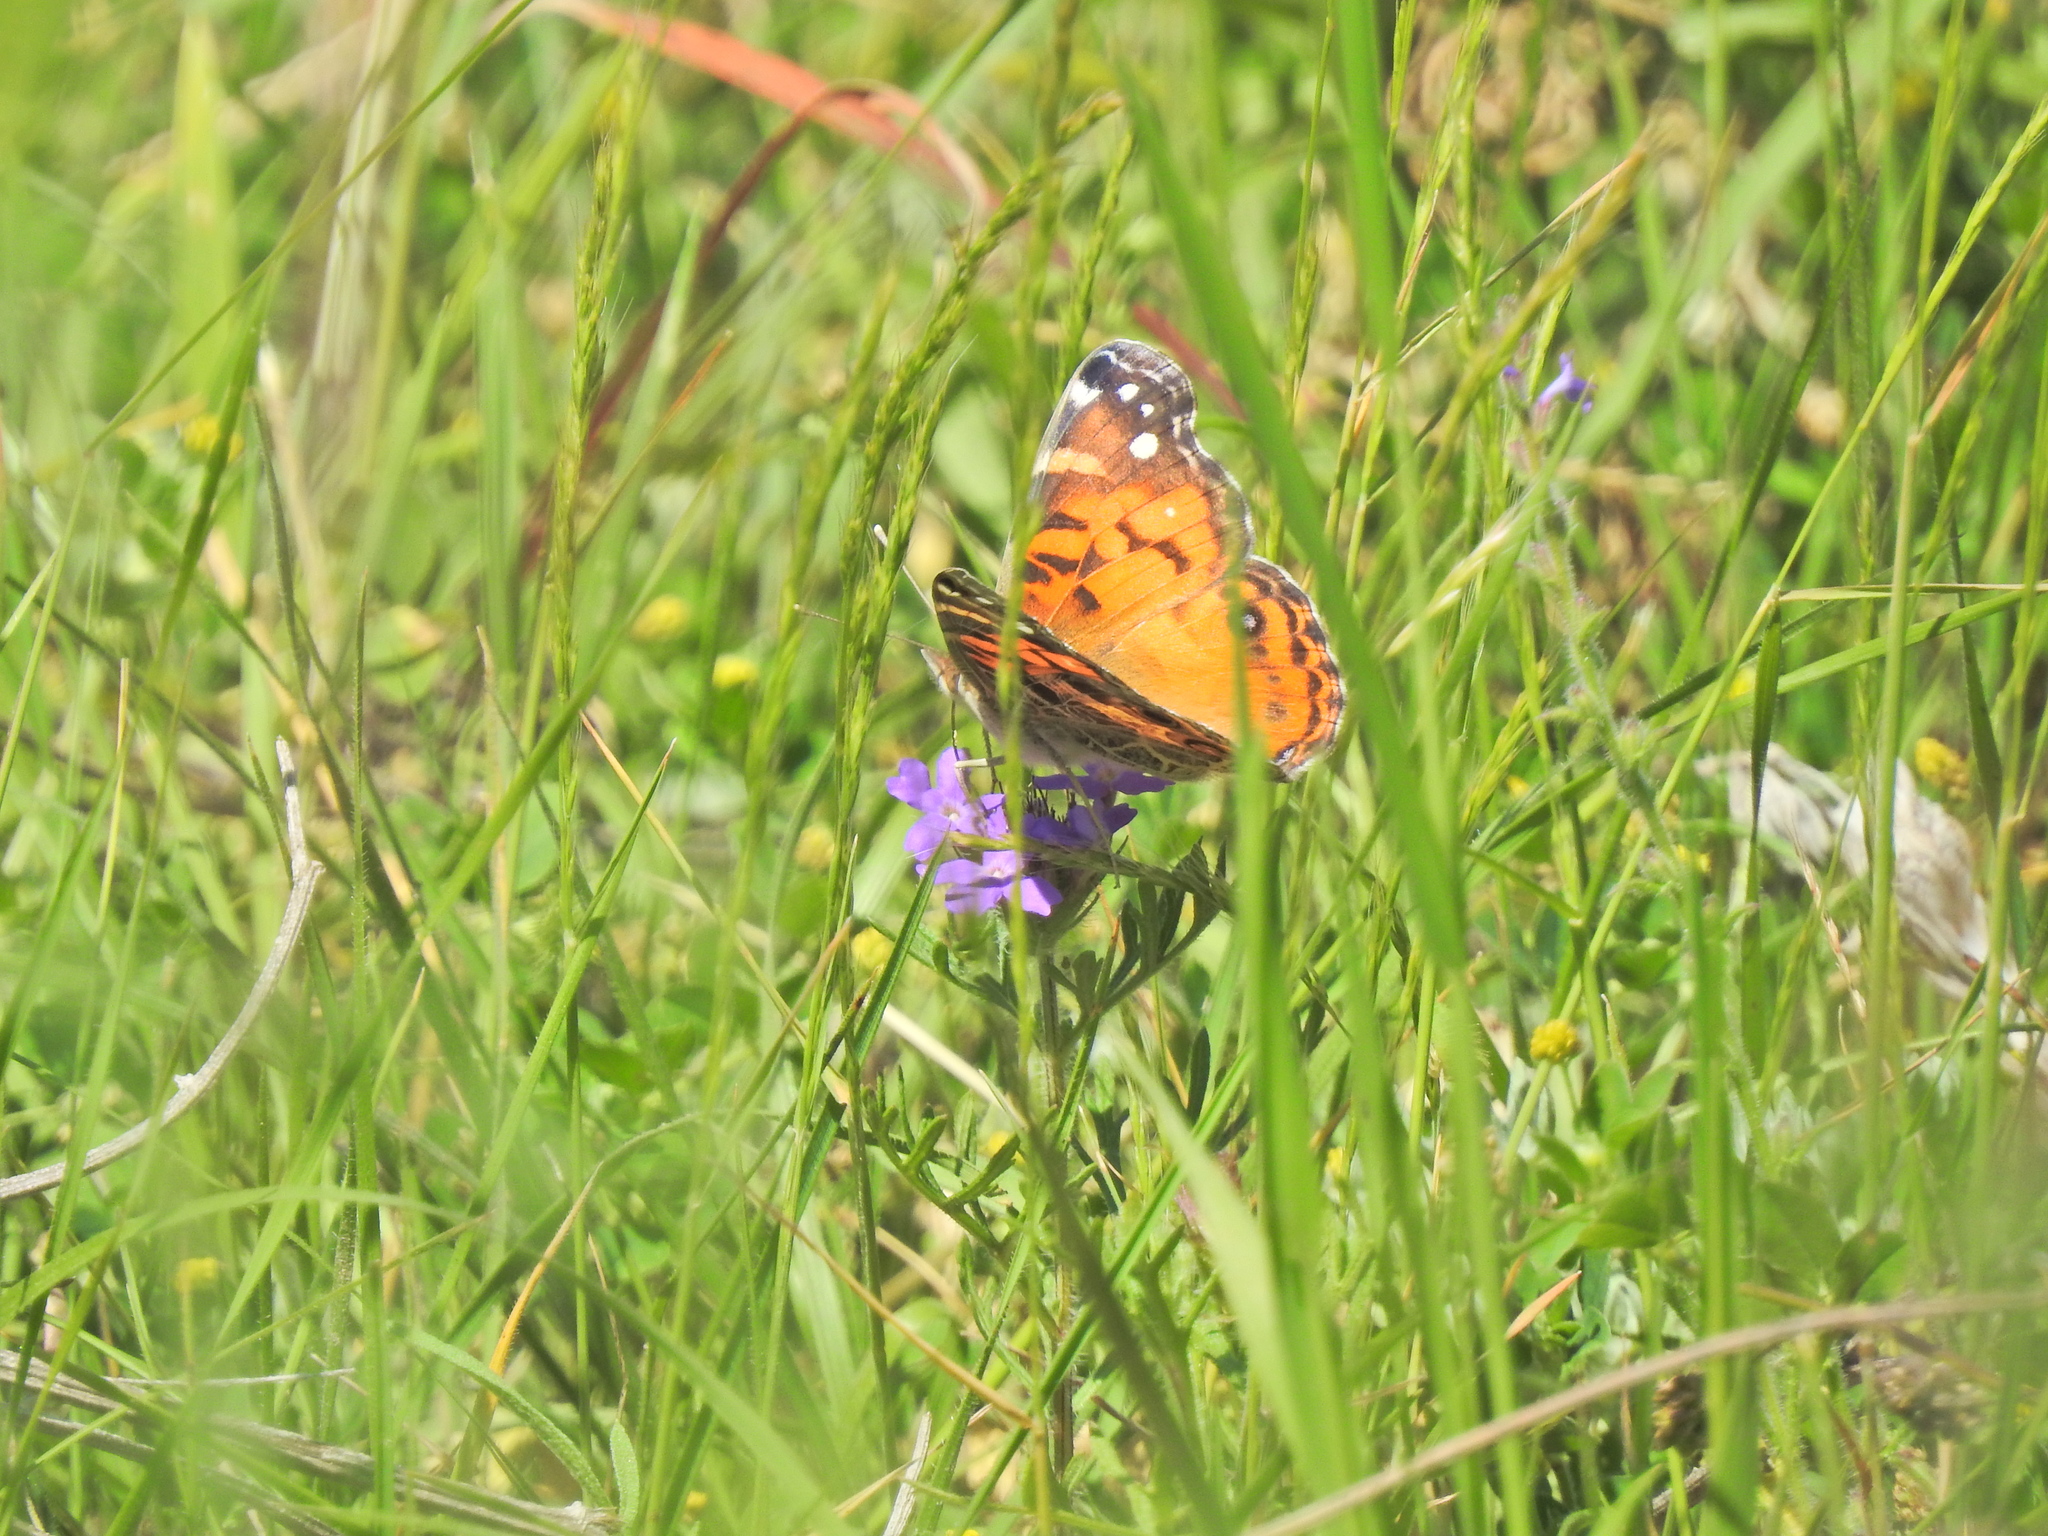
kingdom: Animalia
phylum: Arthropoda
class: Insecta
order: Lepidoptera
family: Nymphalidae
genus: Vanessa
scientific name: Vanessa virginiensis
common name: American lady
